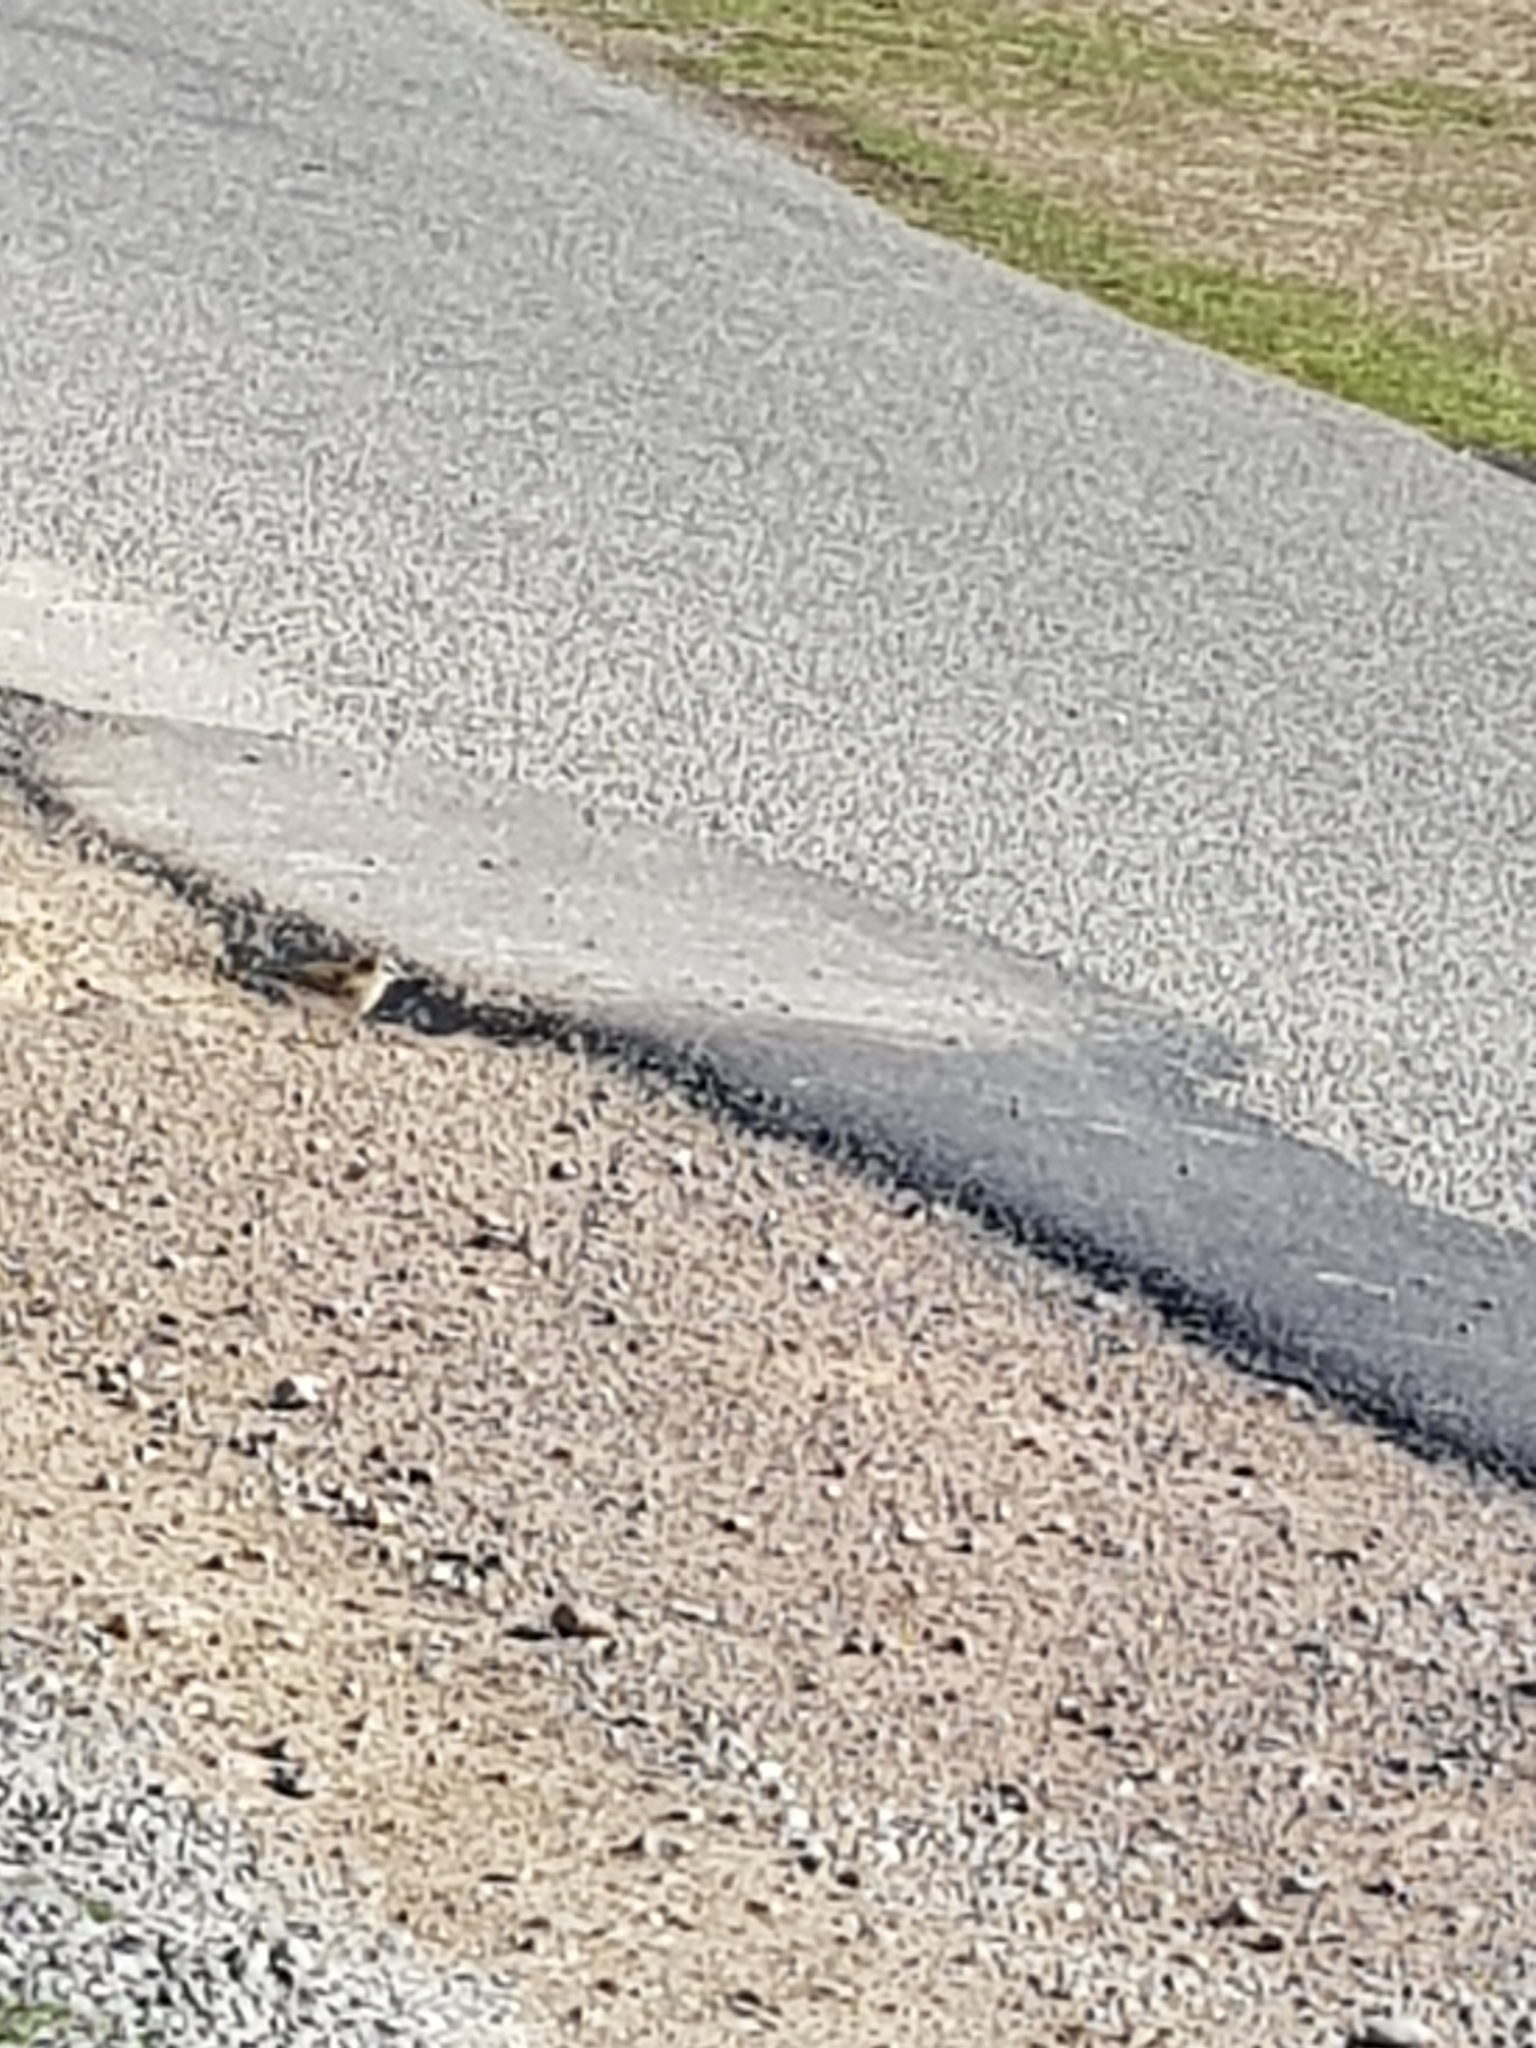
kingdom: Animalia
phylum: Chordata
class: Aves
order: Passeriformes
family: Motacillidae
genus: Anthus
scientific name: Anthus novaeseelandiae
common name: New zealand pipit
